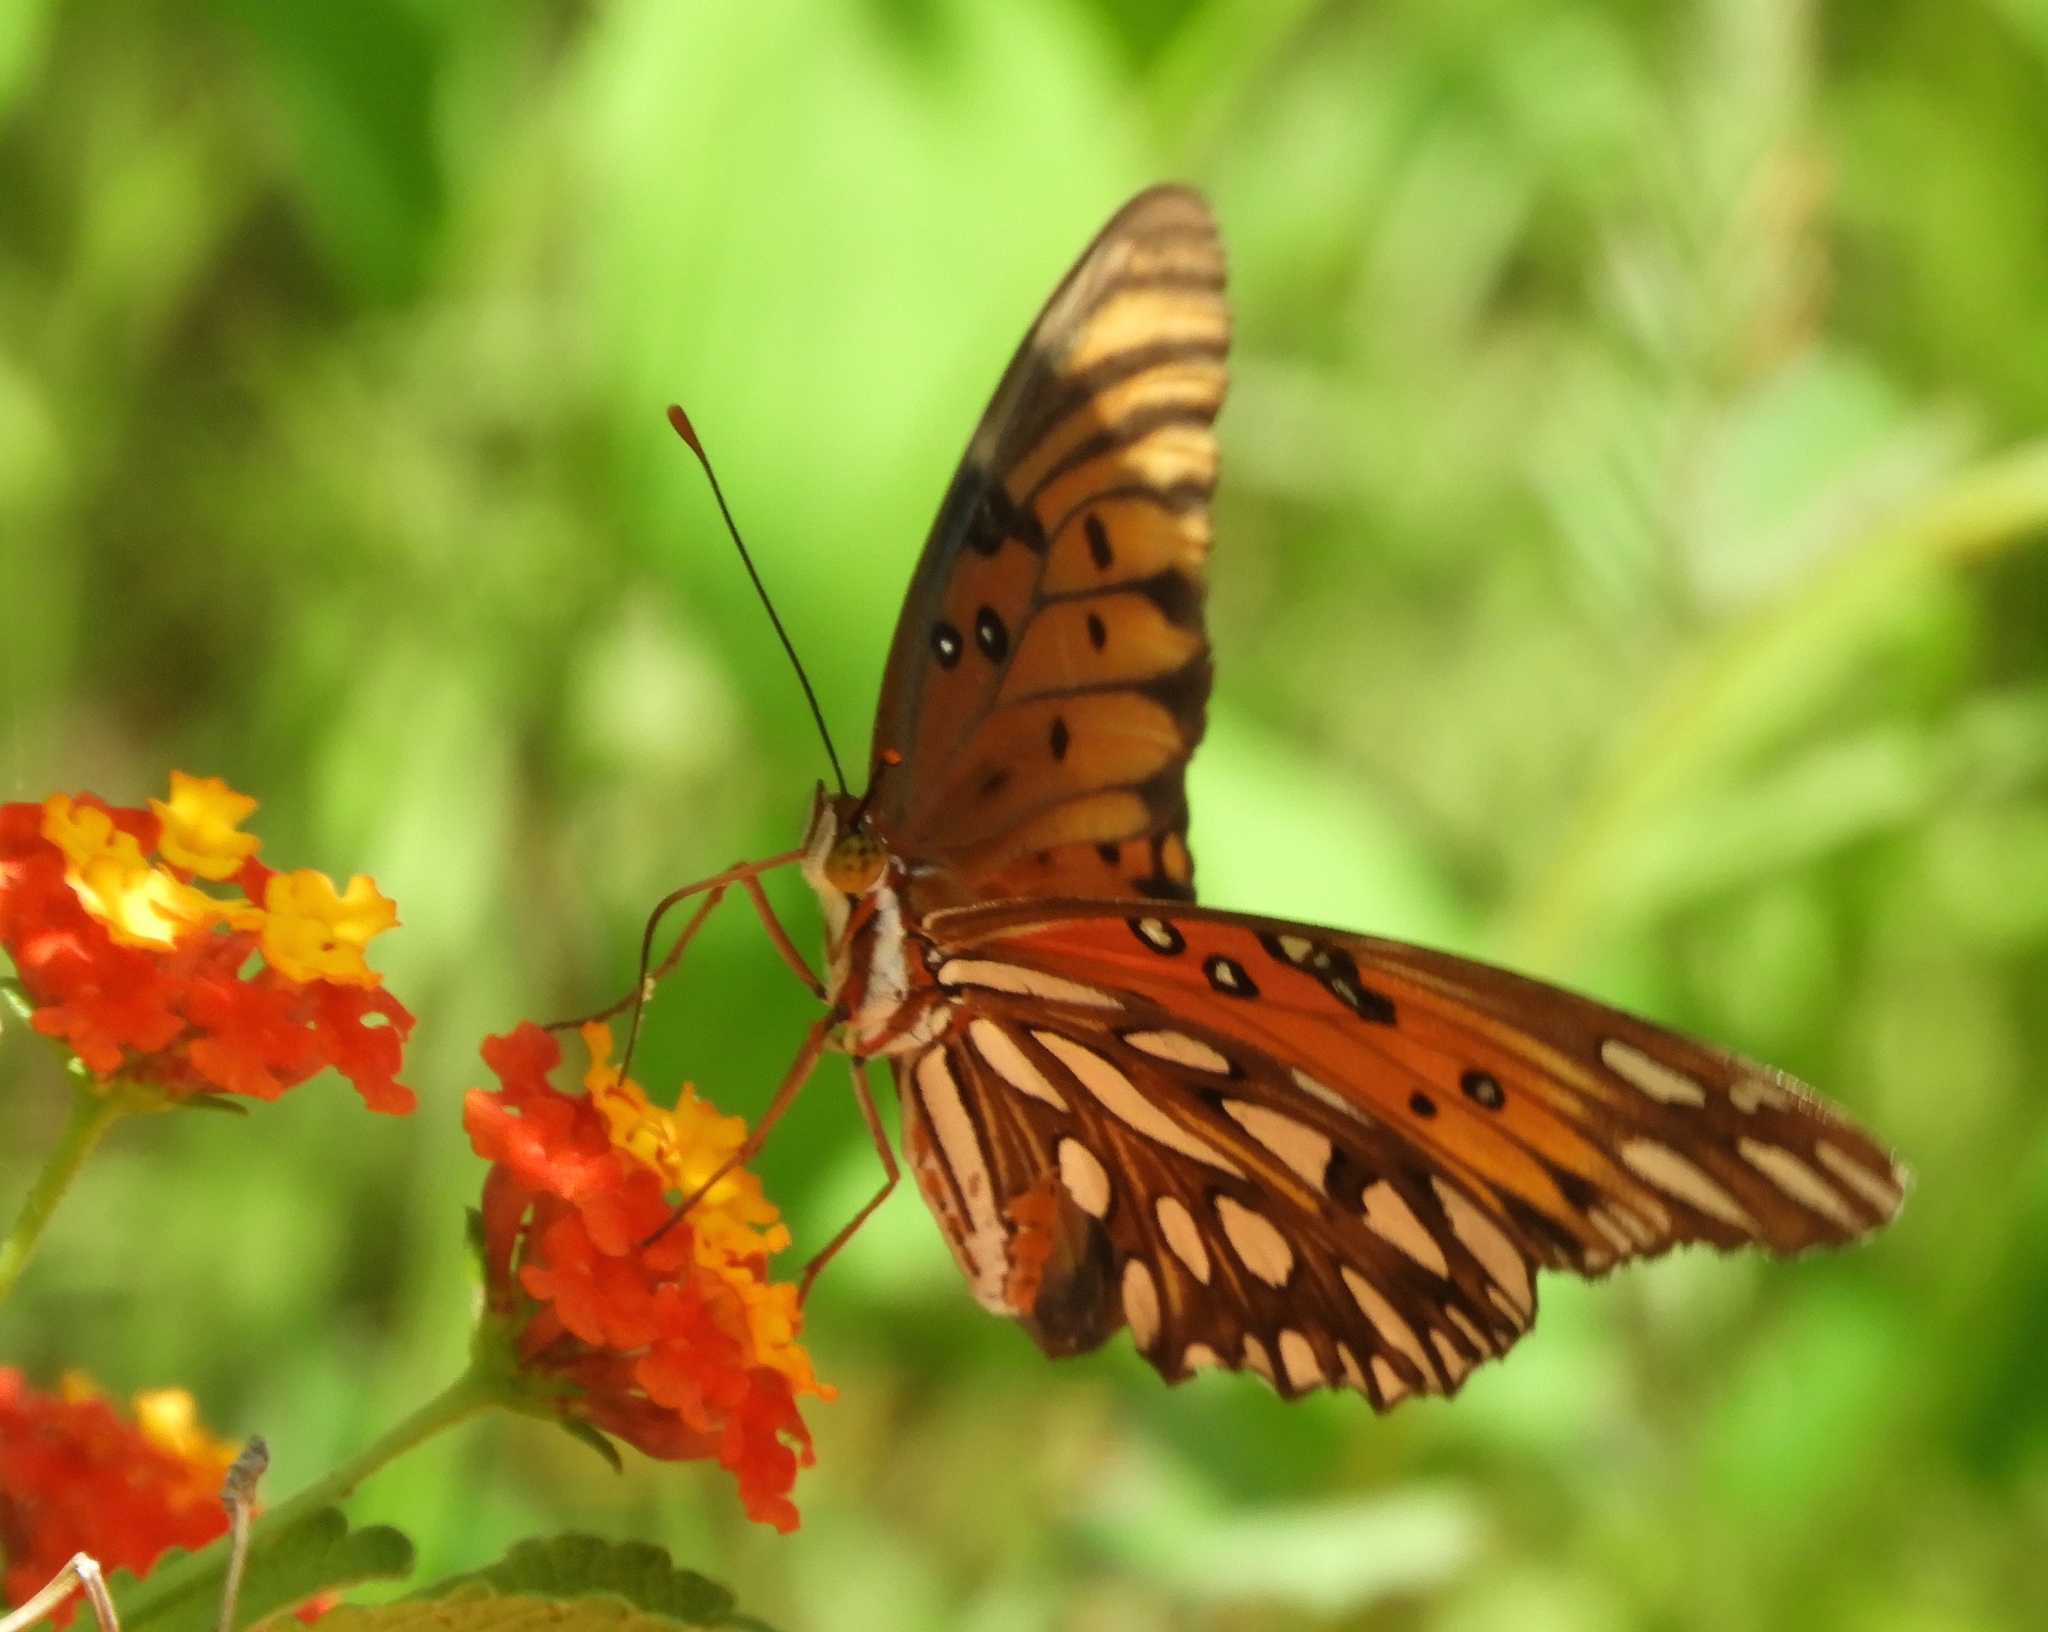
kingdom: Animalia
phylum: Arthropoda
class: Insecta
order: Lepidoptera
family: Nymphalidae
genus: Dione
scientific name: Dione vanillae
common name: Gulf fritillary
